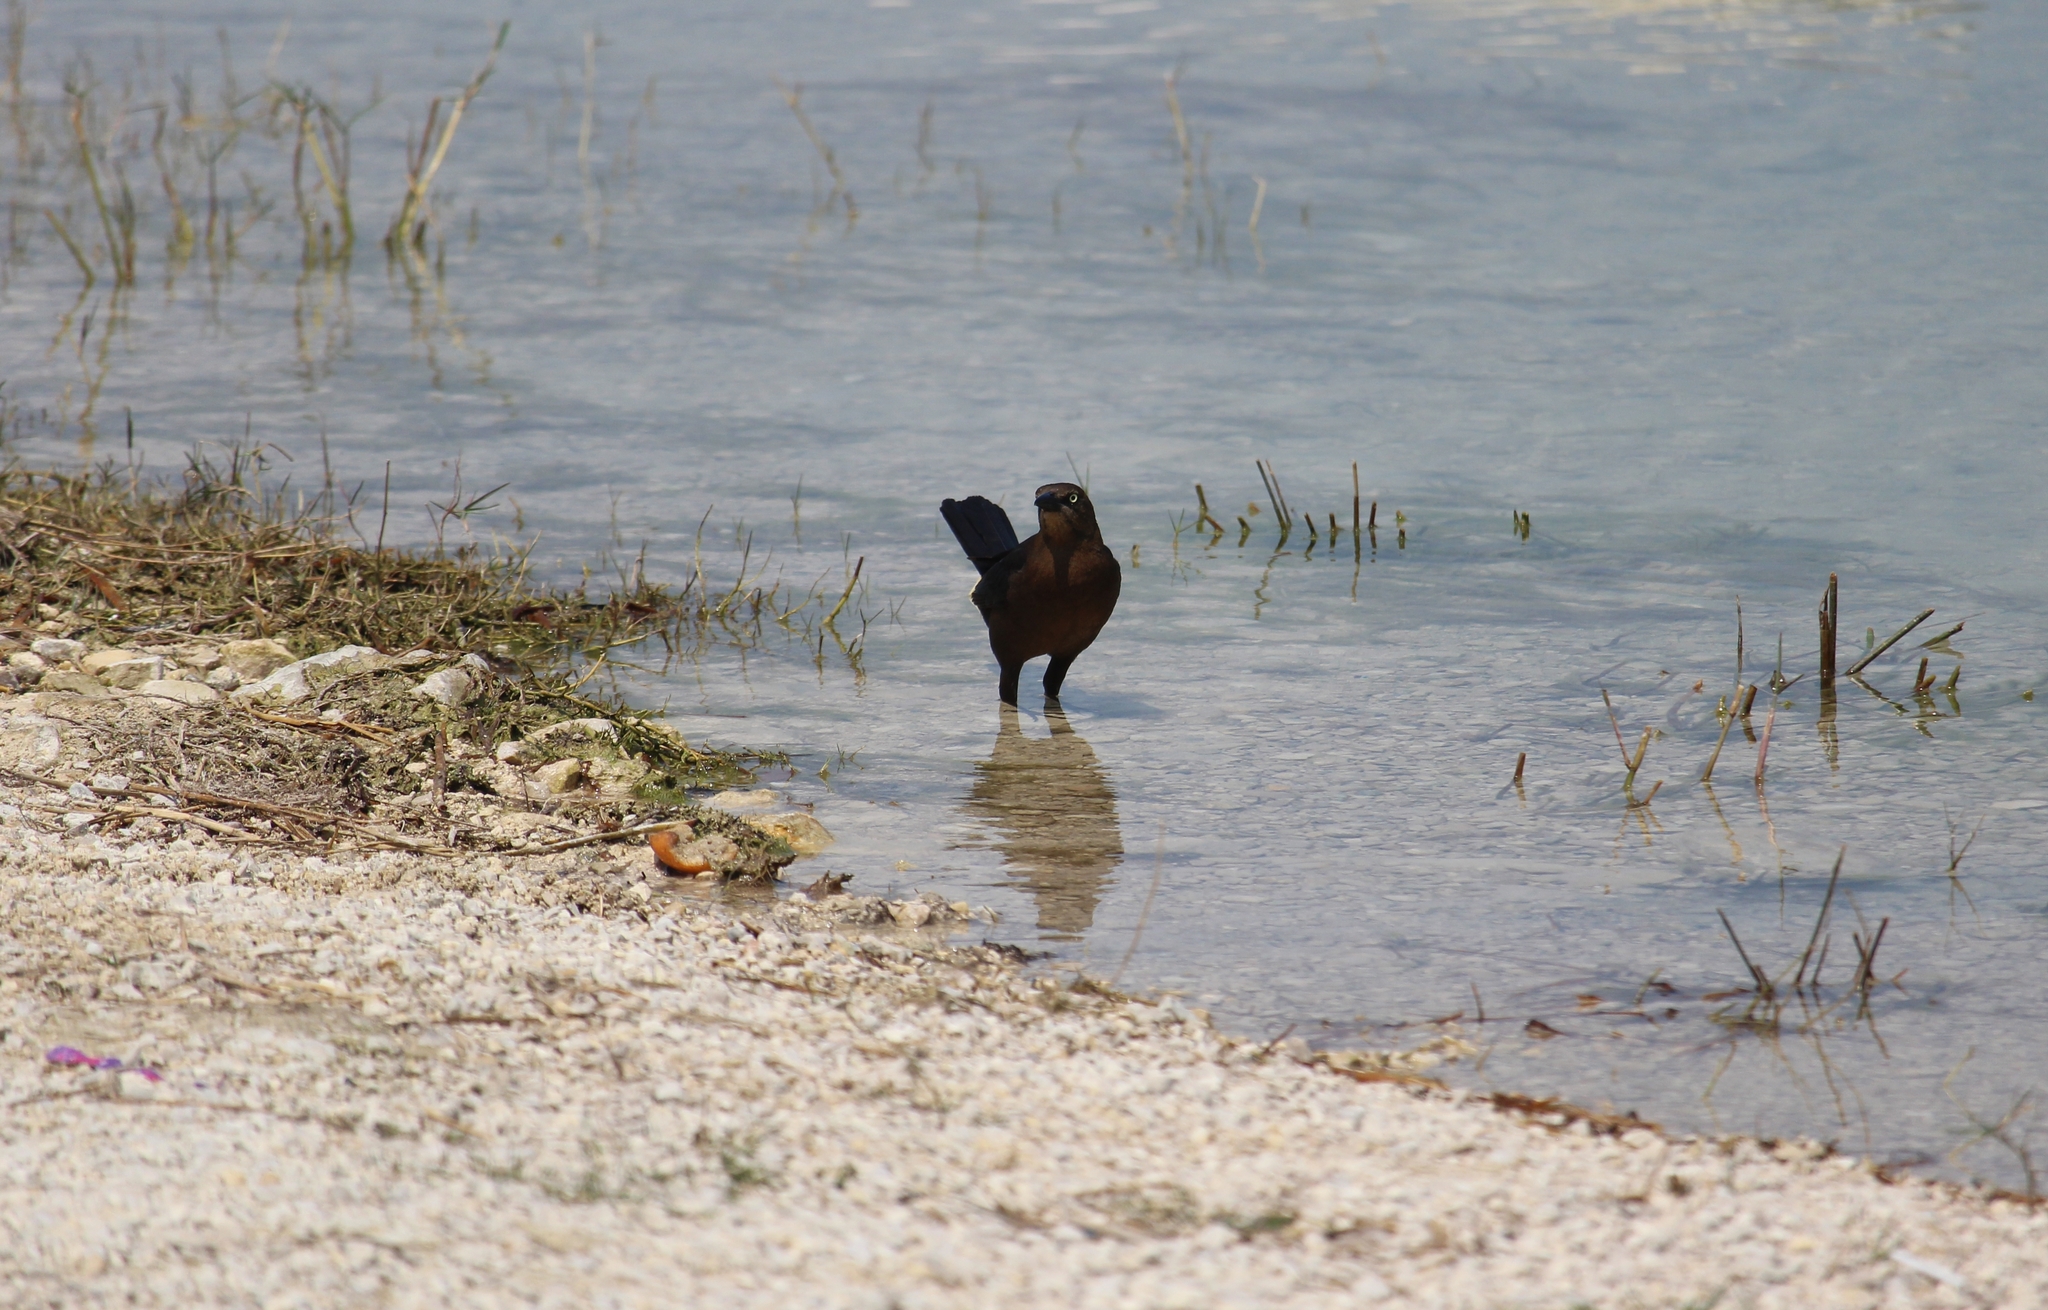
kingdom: Animalia
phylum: Chordata
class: Aves
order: Passeriformes
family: Icteridae
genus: Quiscalus
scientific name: Quiscalus mexicanus
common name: Great-tailed grackle
